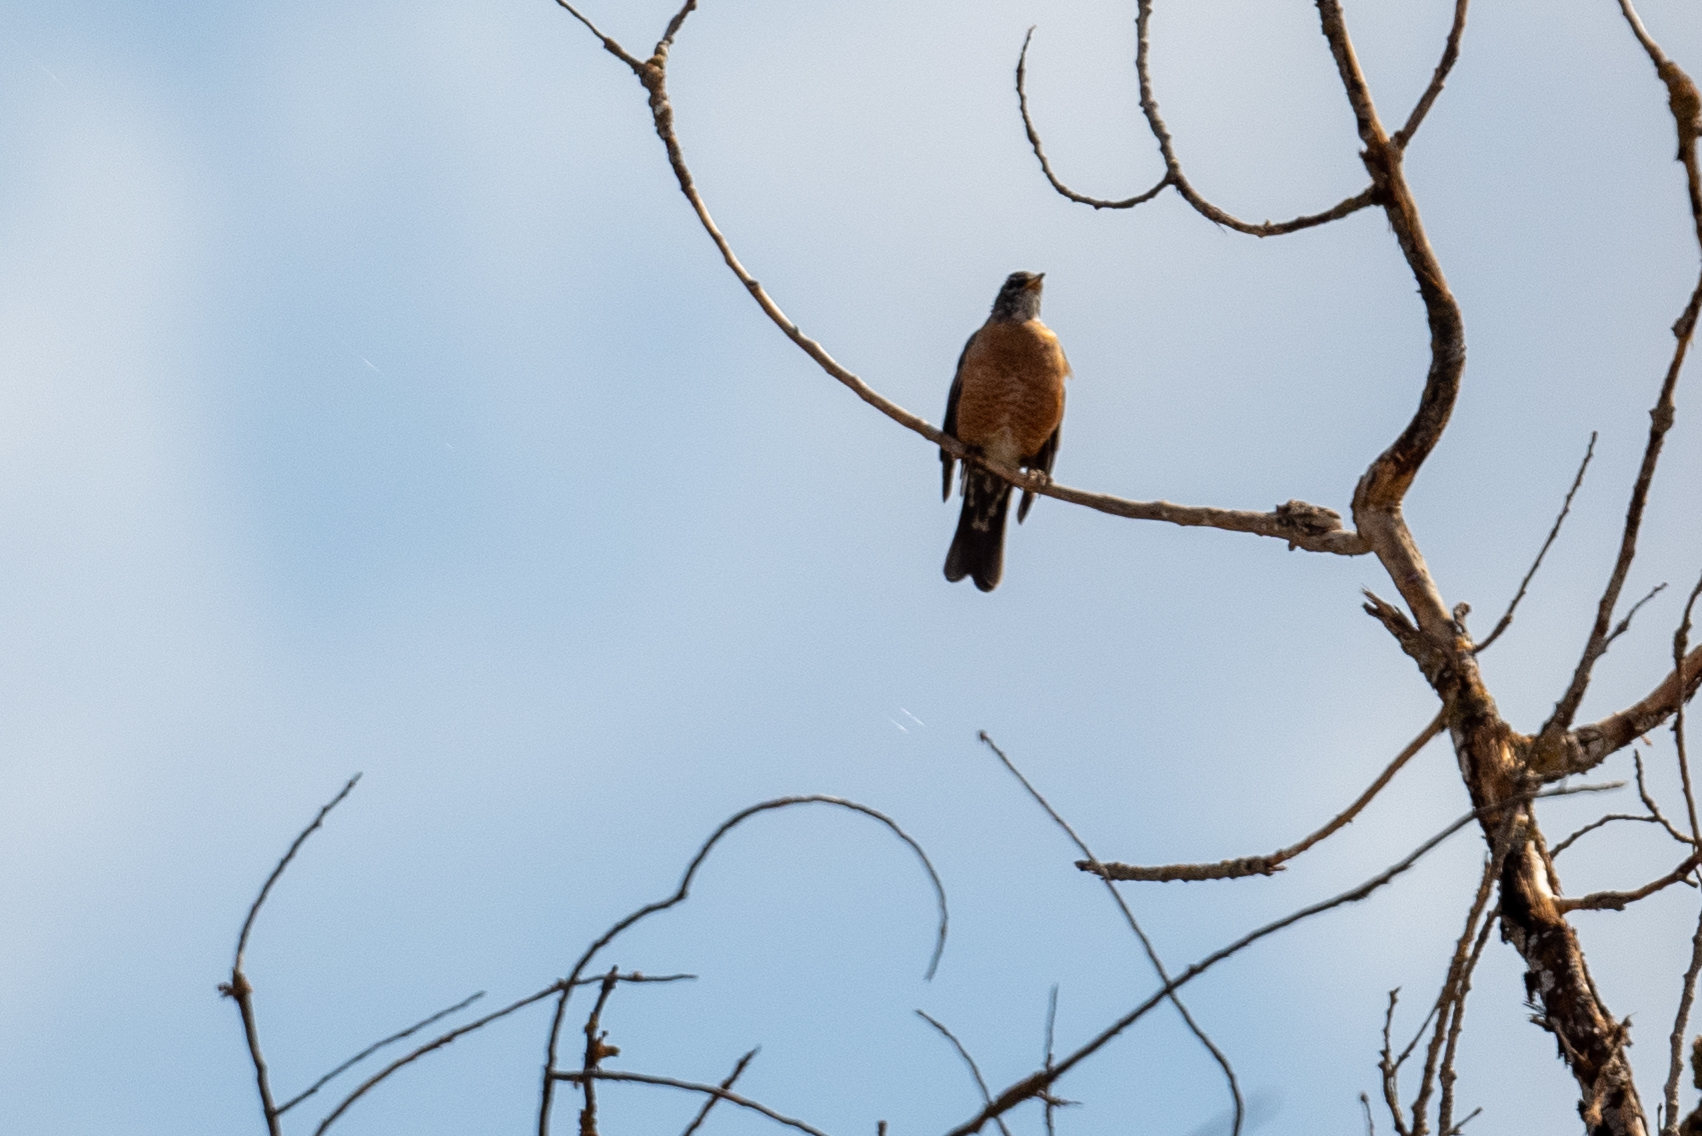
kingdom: Animalia
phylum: Chordata
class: Aves
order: Passeriformes
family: Turdidae
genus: Turdus
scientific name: Turdus migratorius
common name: American robin
